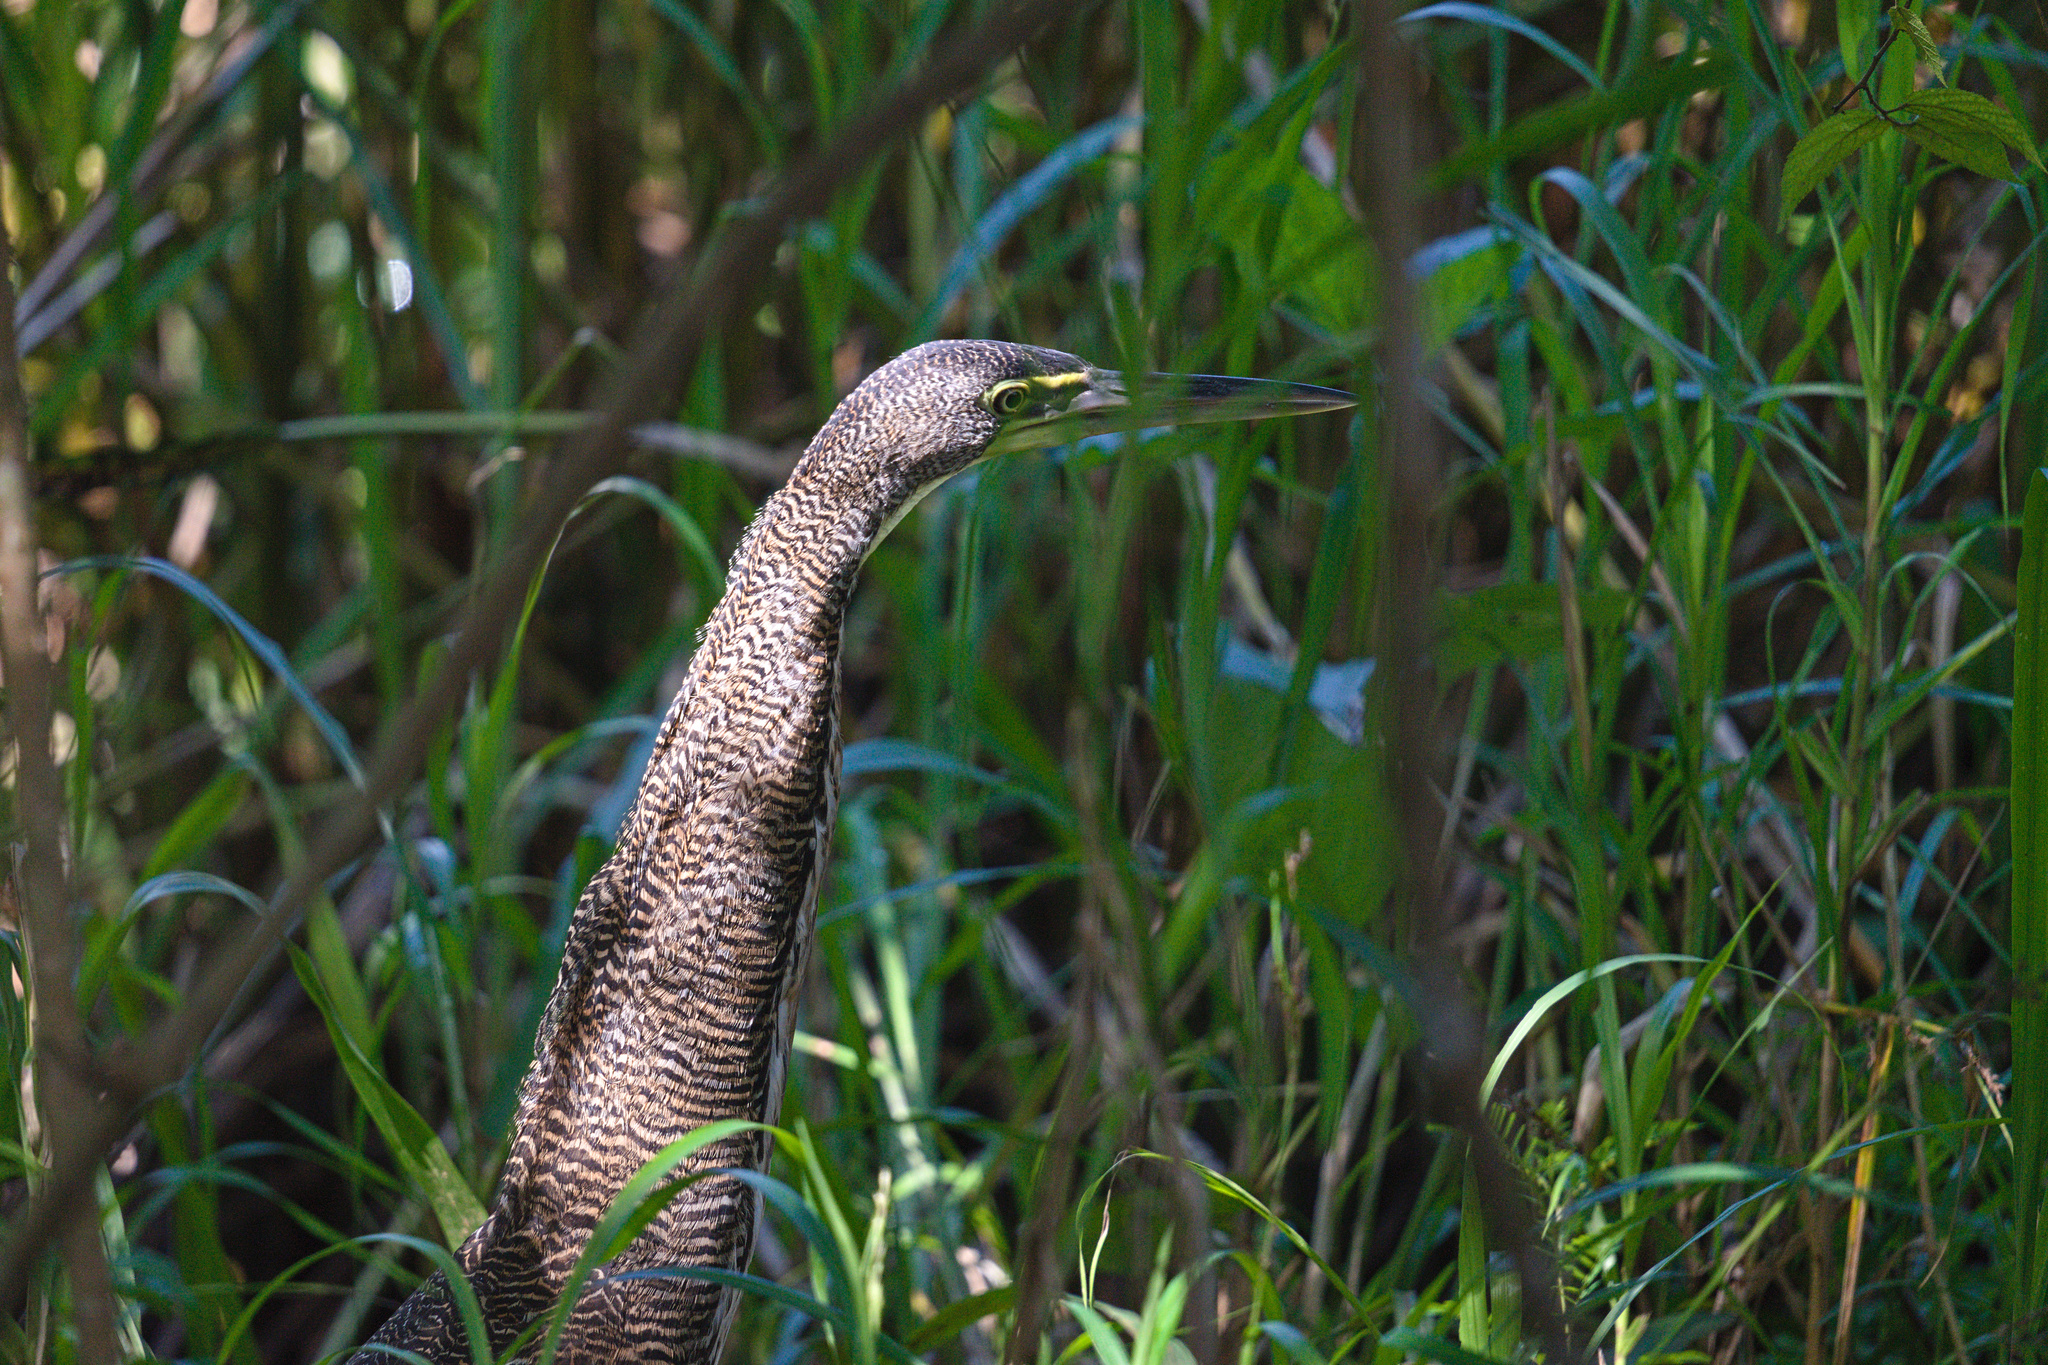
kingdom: Animalia
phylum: Chordata
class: Aves
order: Pelecaniformes
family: Ardeidae
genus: Tigrisoma
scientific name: Tigrisoma mexicanum
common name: Bare-throated tiger-heron
